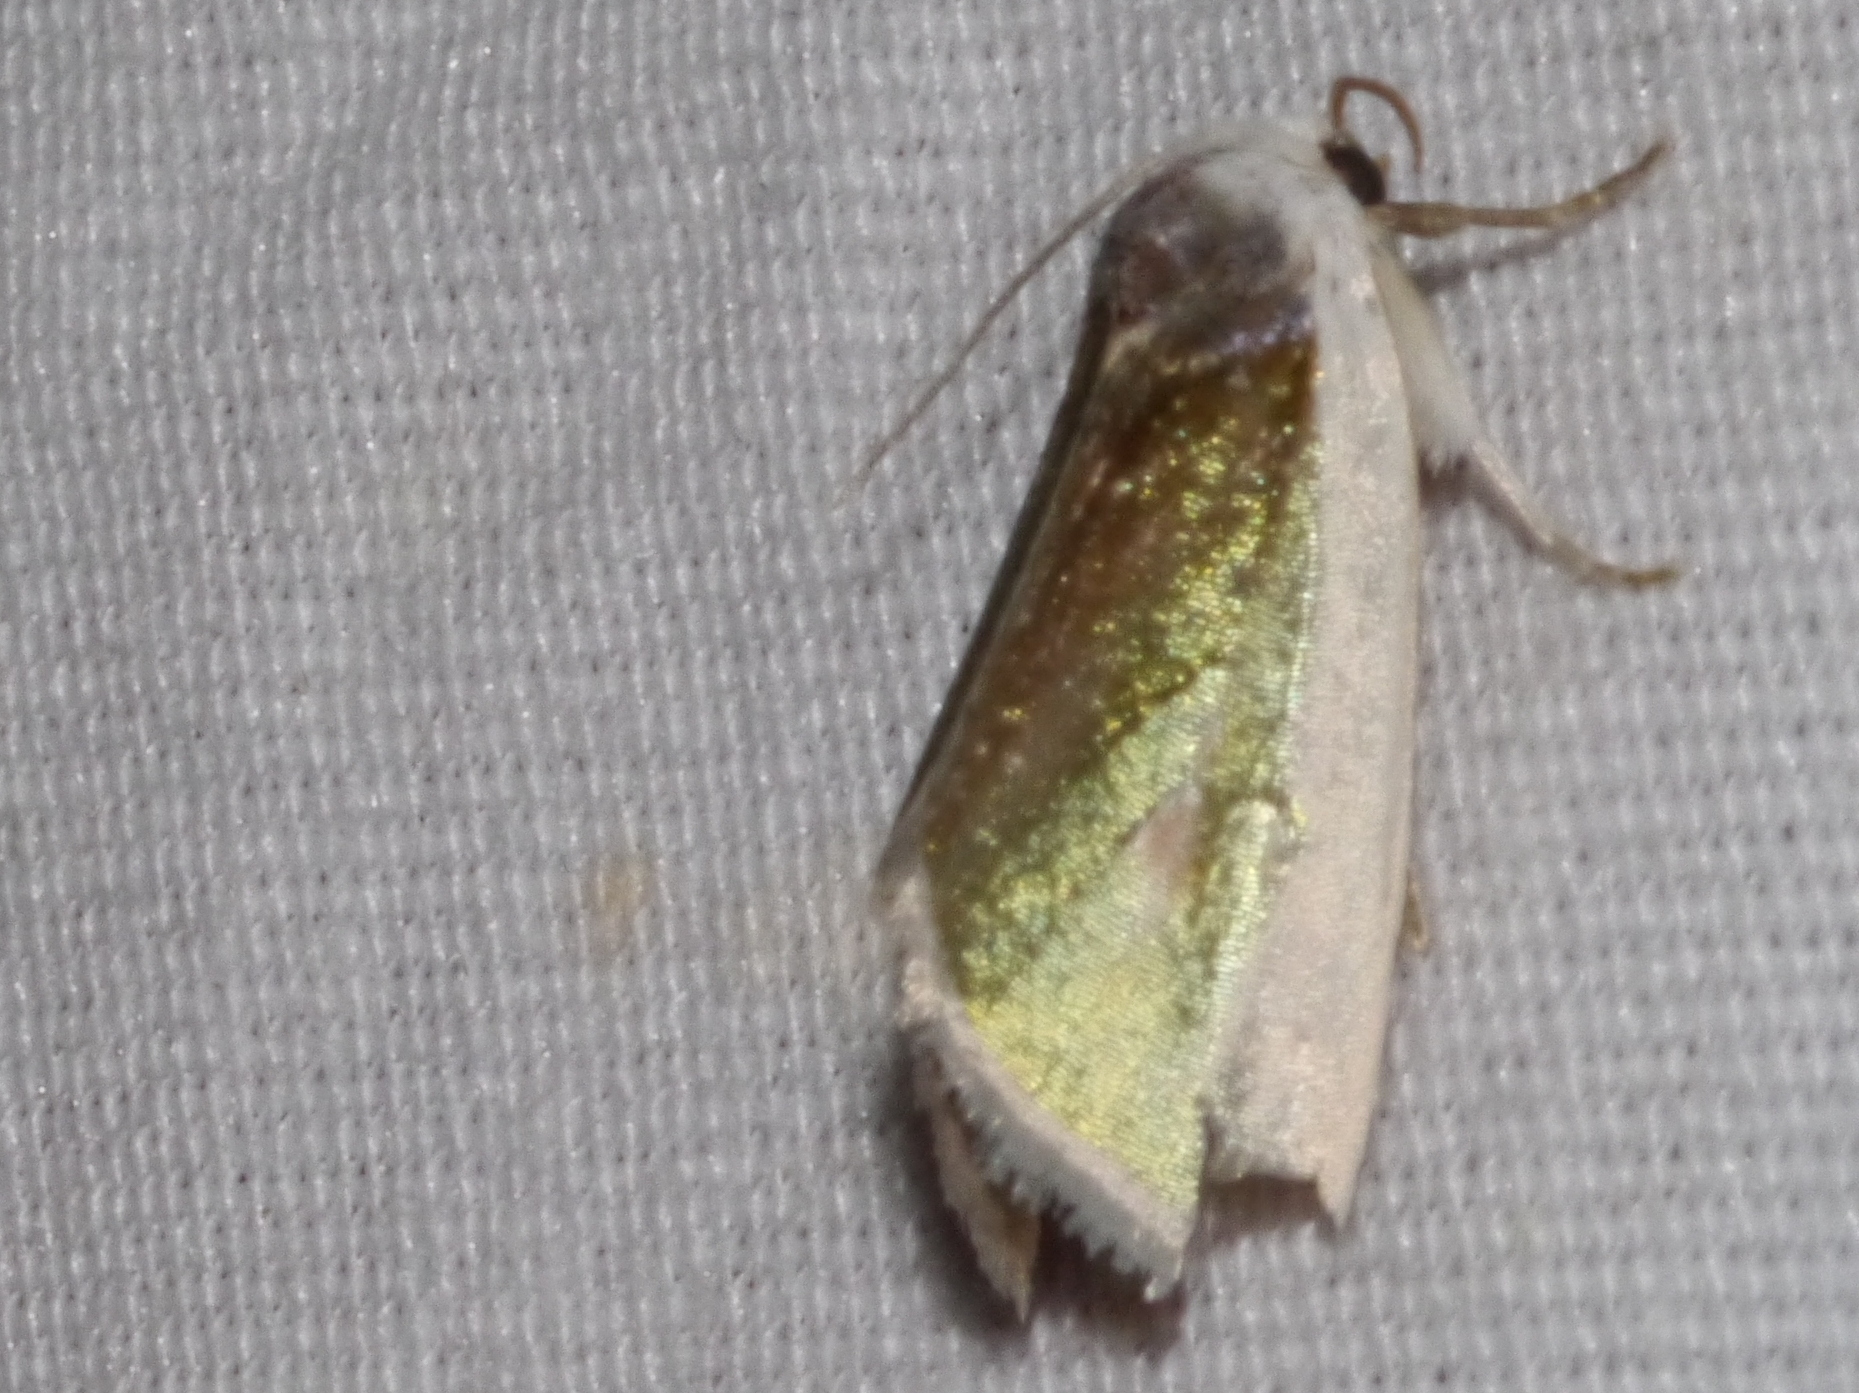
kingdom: Animalia
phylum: Arthropoda
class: Insecta
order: Lepidoptera
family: Noctuidae
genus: Neumoegenia
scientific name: Neumoegenia poetica
